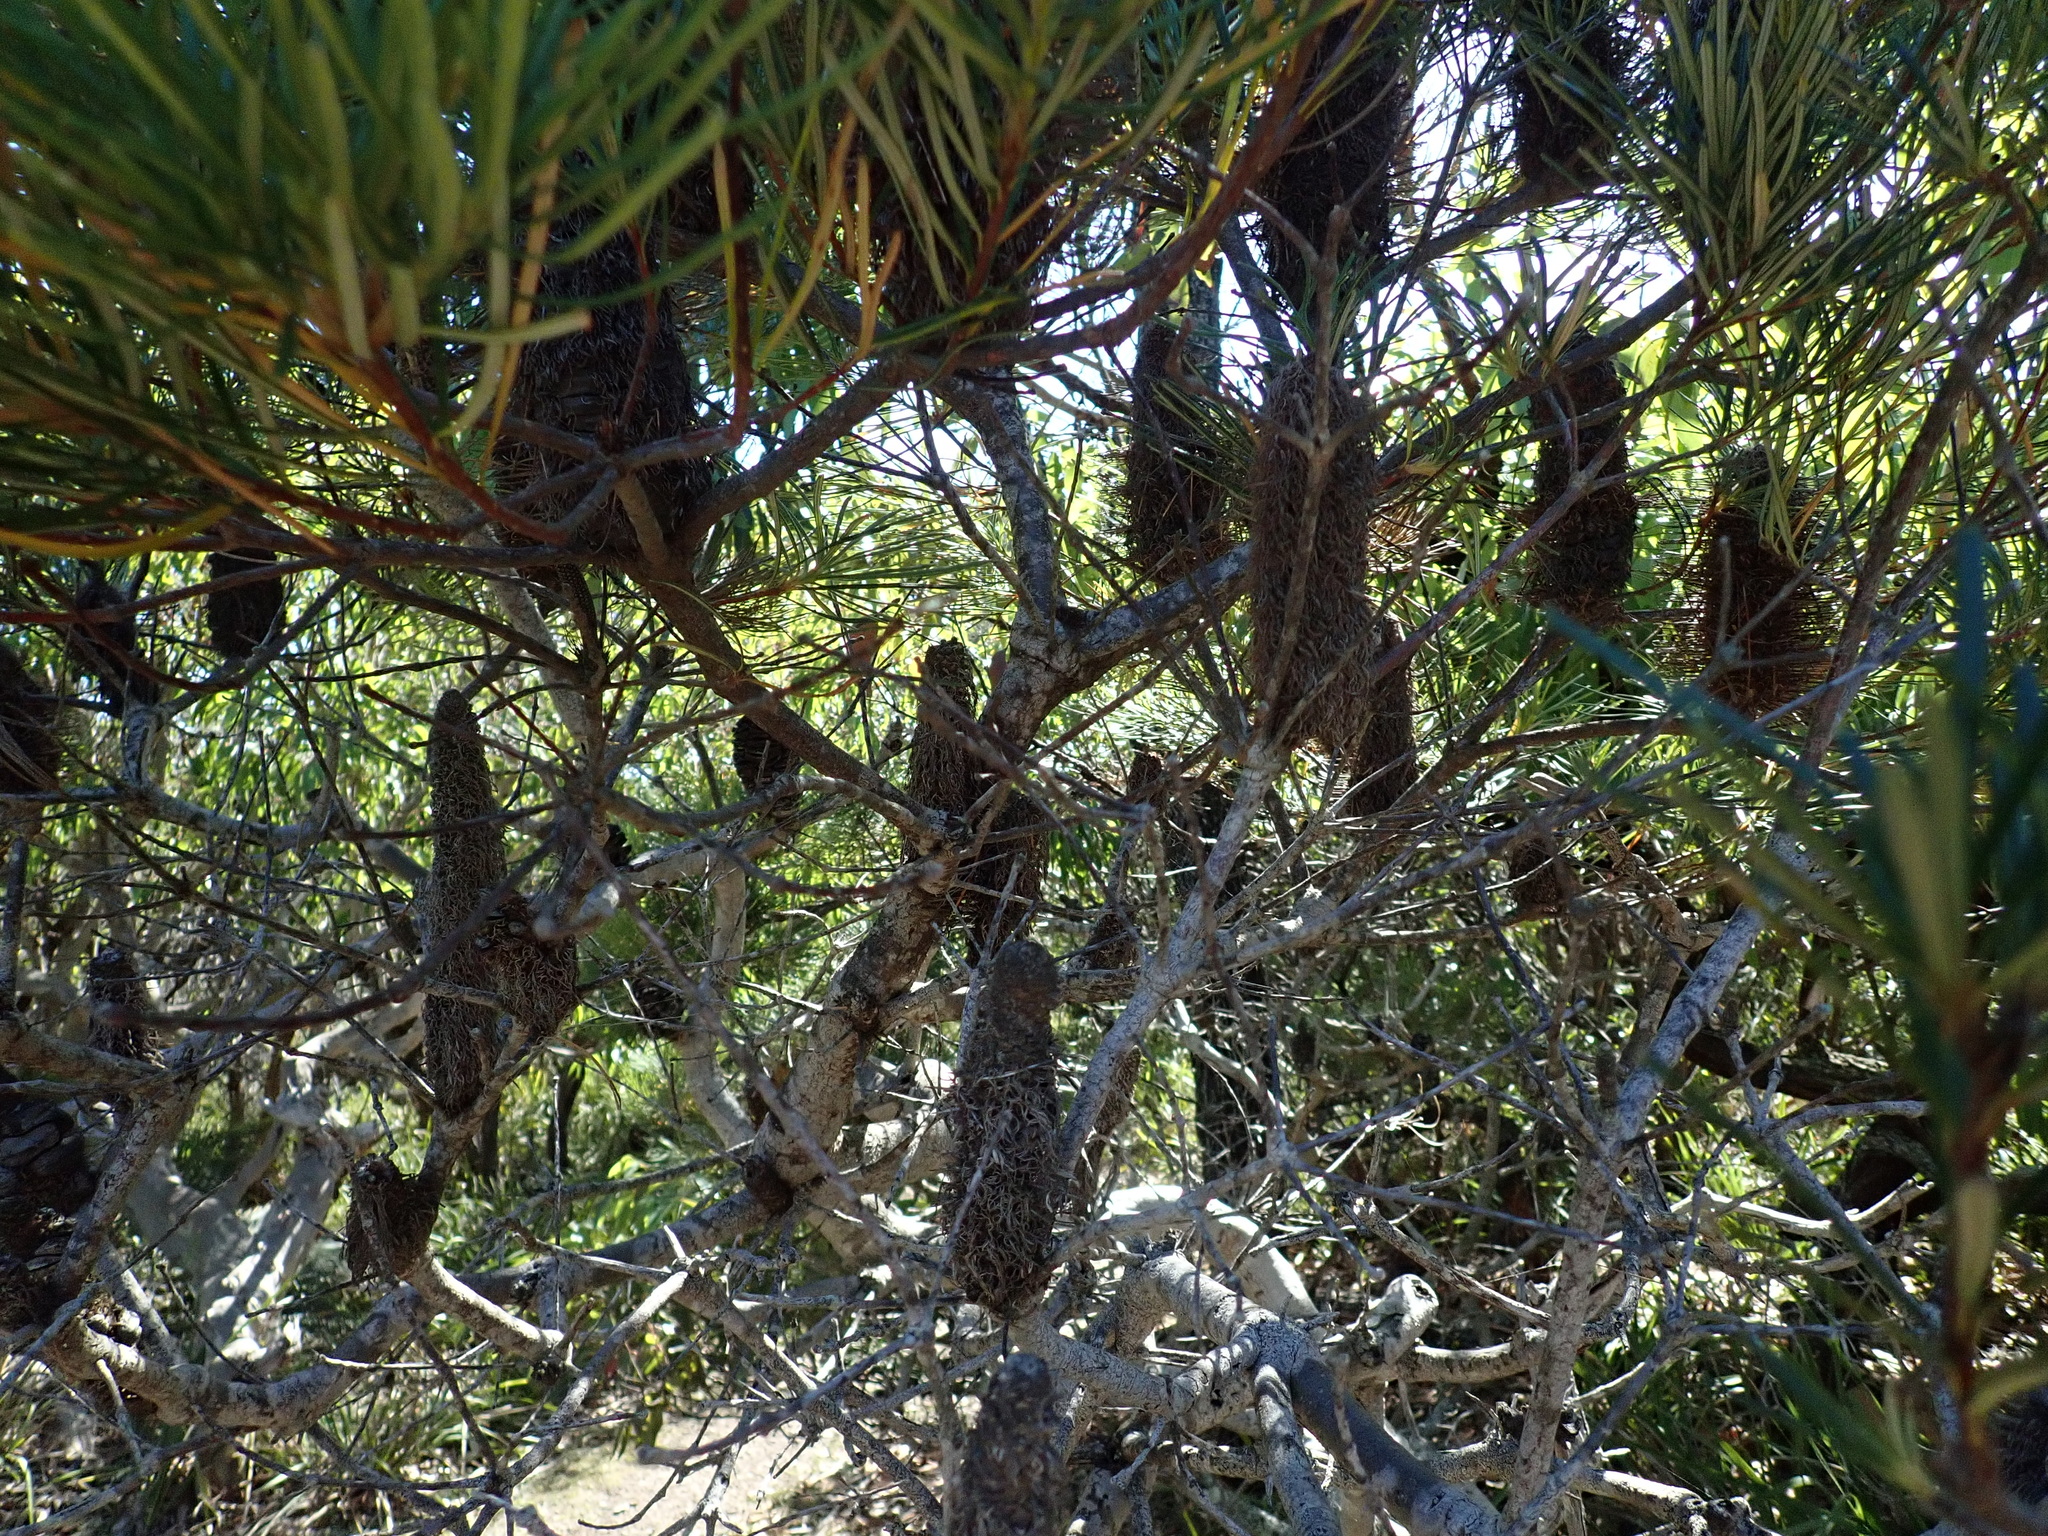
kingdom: Plantae
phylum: Tracheophyta
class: Magnoliopsida
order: Proteales
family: Proteaceae
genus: Banksia
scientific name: Banksia spinulosa
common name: Hairpin banksia
